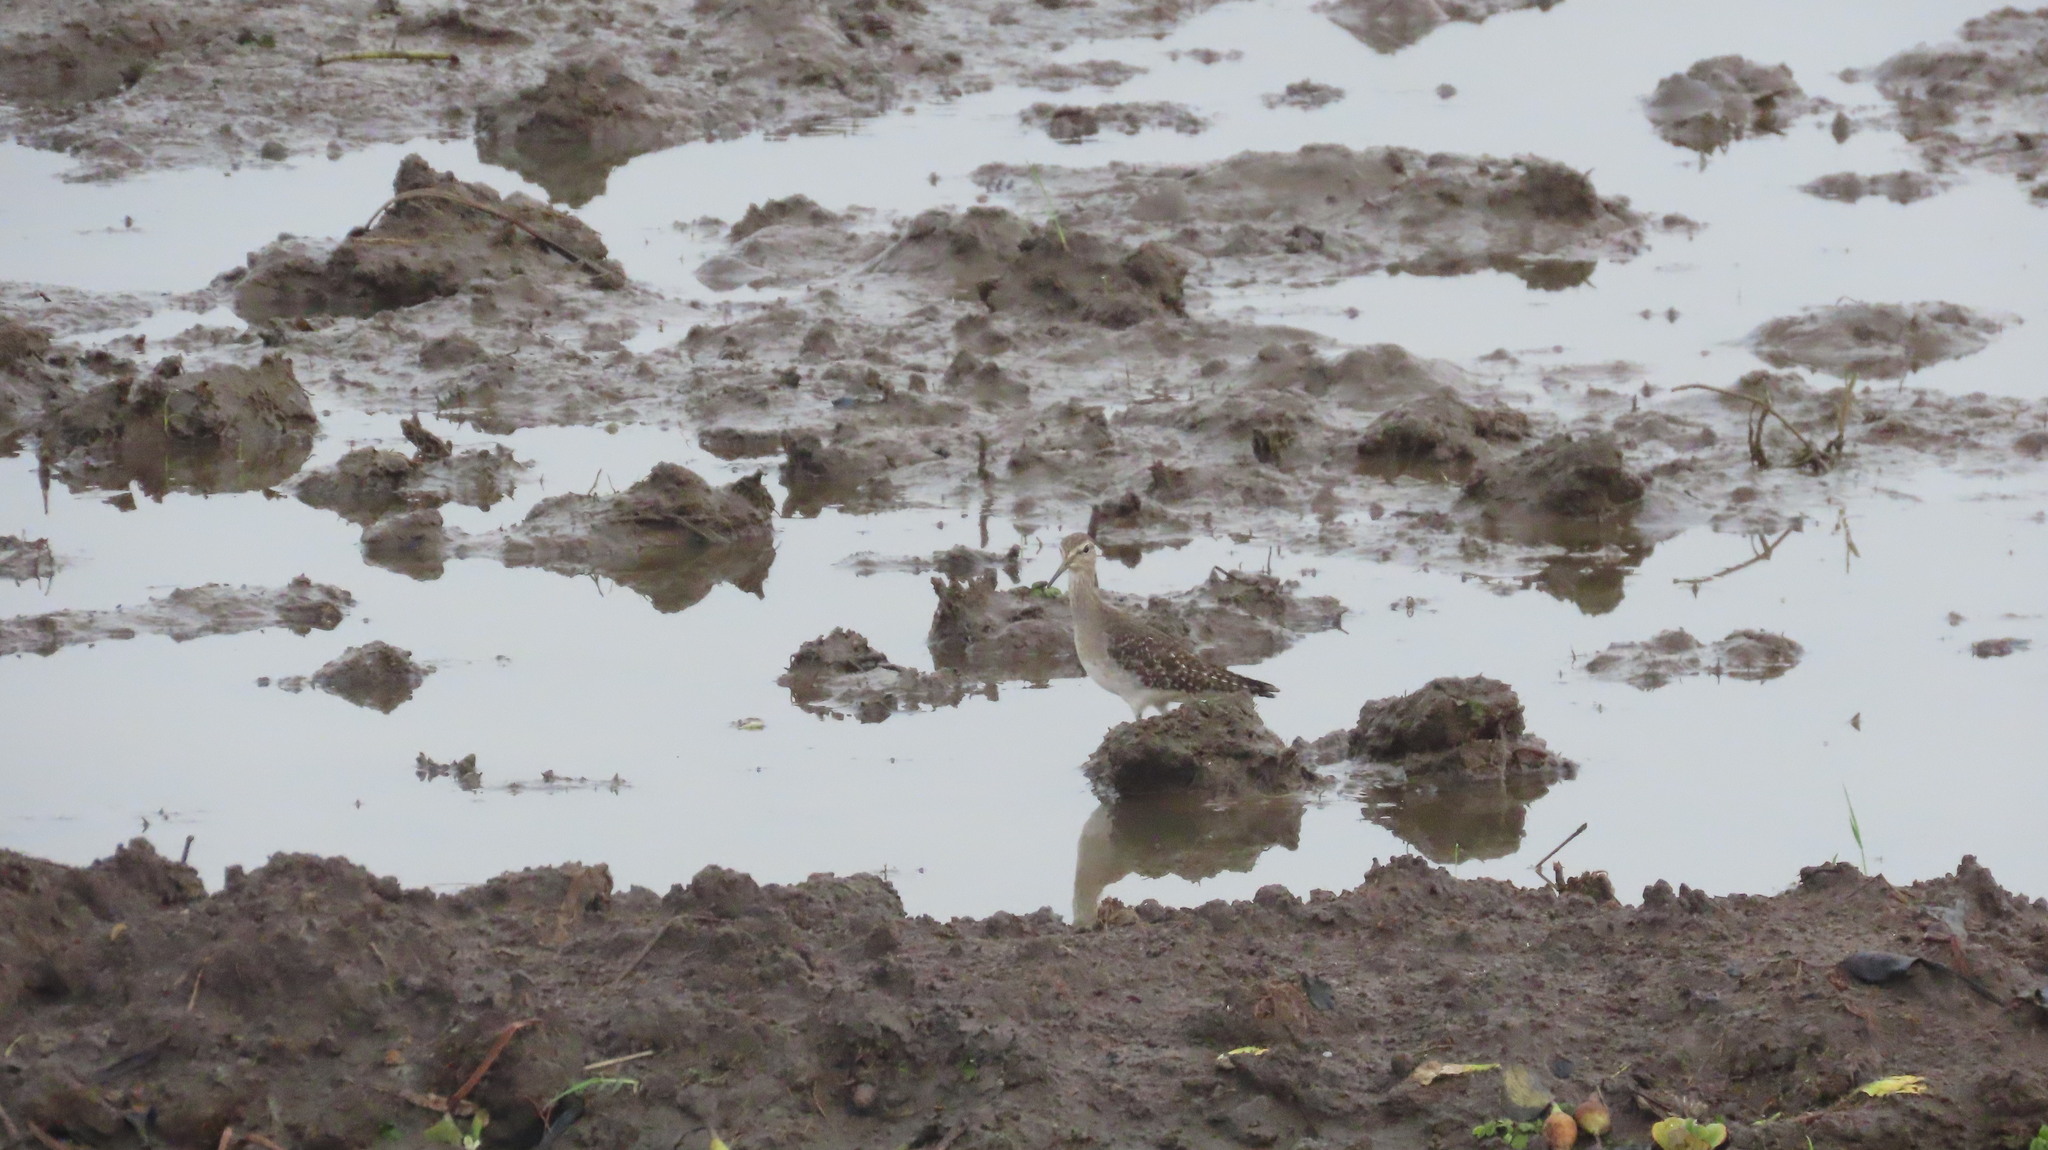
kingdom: Animalia
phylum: Chordata
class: Aves
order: Charadriiformes
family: Scolopacidae
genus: Tringa
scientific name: Tringa glareola
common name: Wood sandpiper
